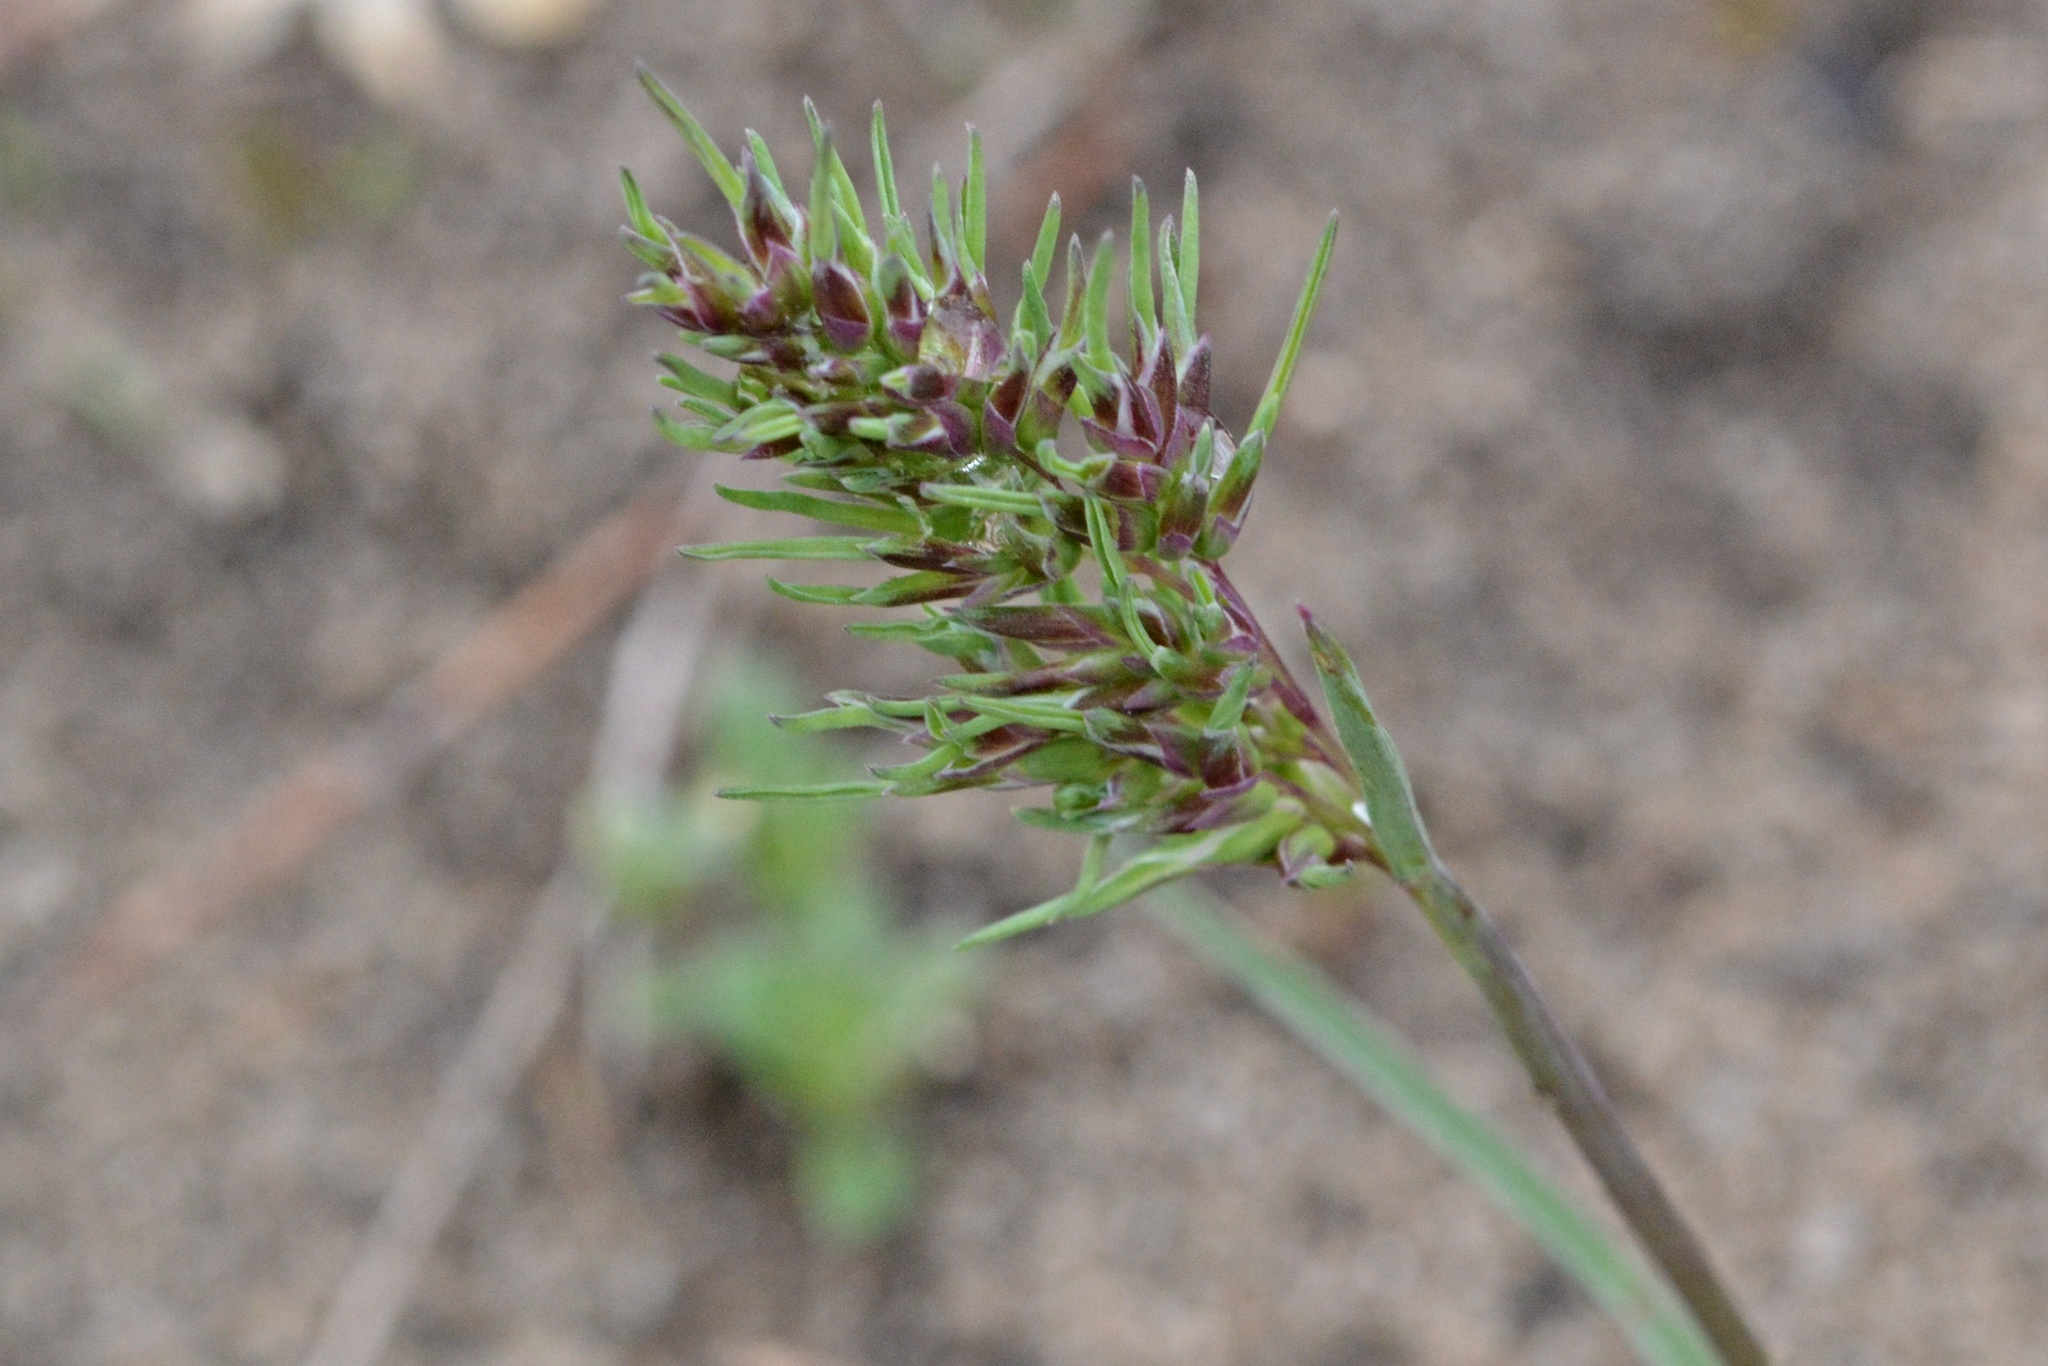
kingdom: Plantae
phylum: Tracheophyta
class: Liliopsida
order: Poales
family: Poaceae
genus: Poa
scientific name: Poa bulbosa
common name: Bulbous bluegrass
